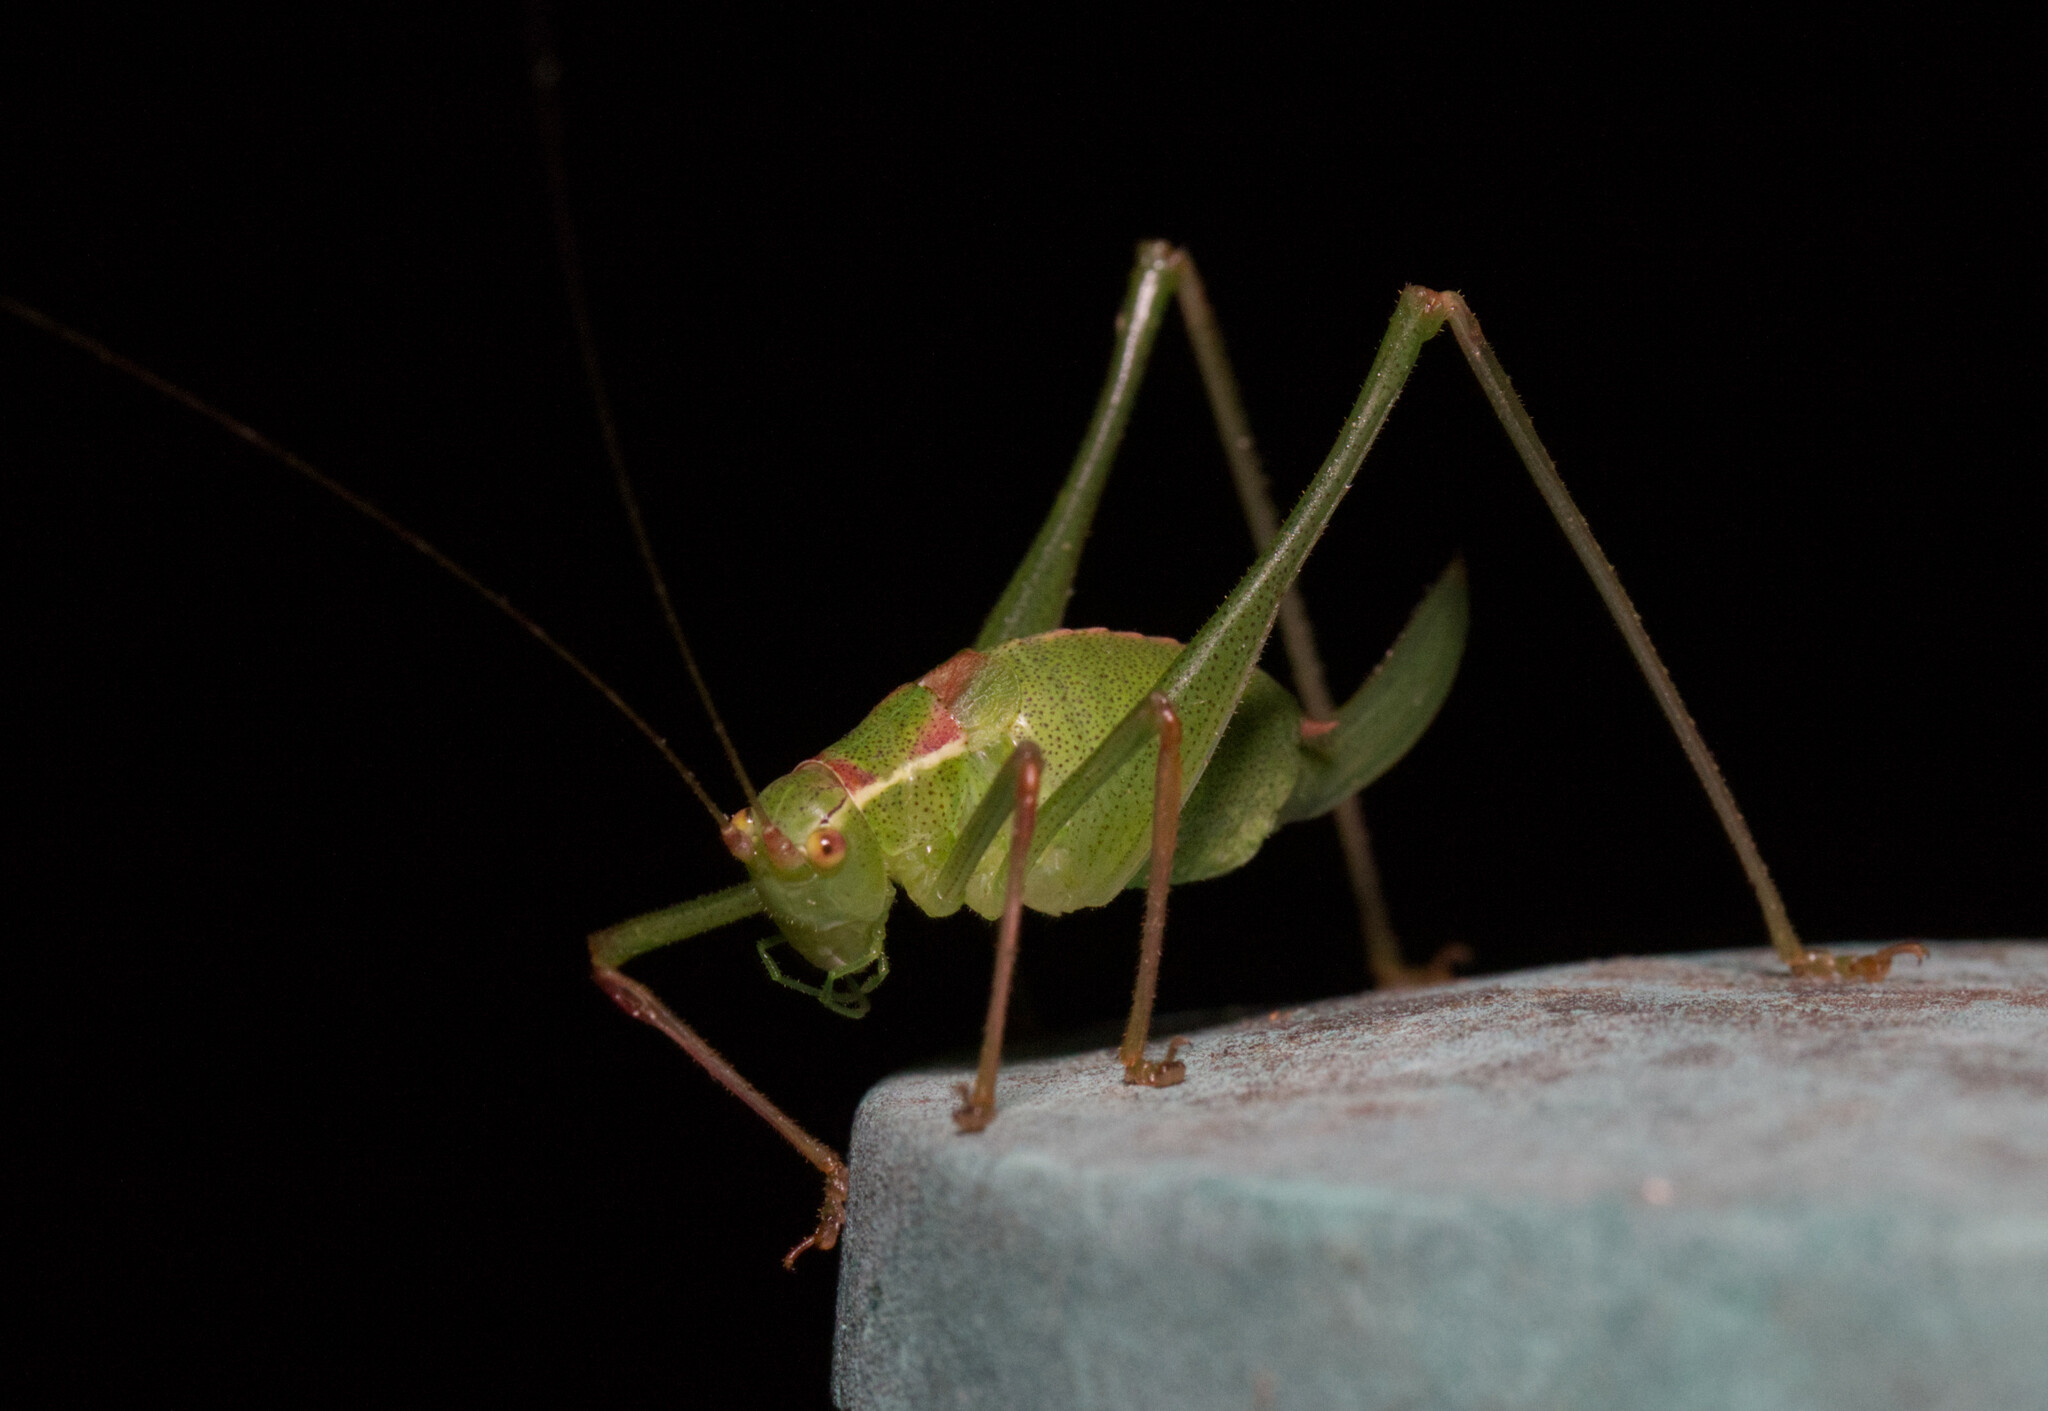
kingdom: Animalia
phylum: Arthropoda
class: Insecta
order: Orthoptera
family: Tettigoniidae
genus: Leptophyes
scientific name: Leptophyes punctatissima
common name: Speckled bush-cricket
